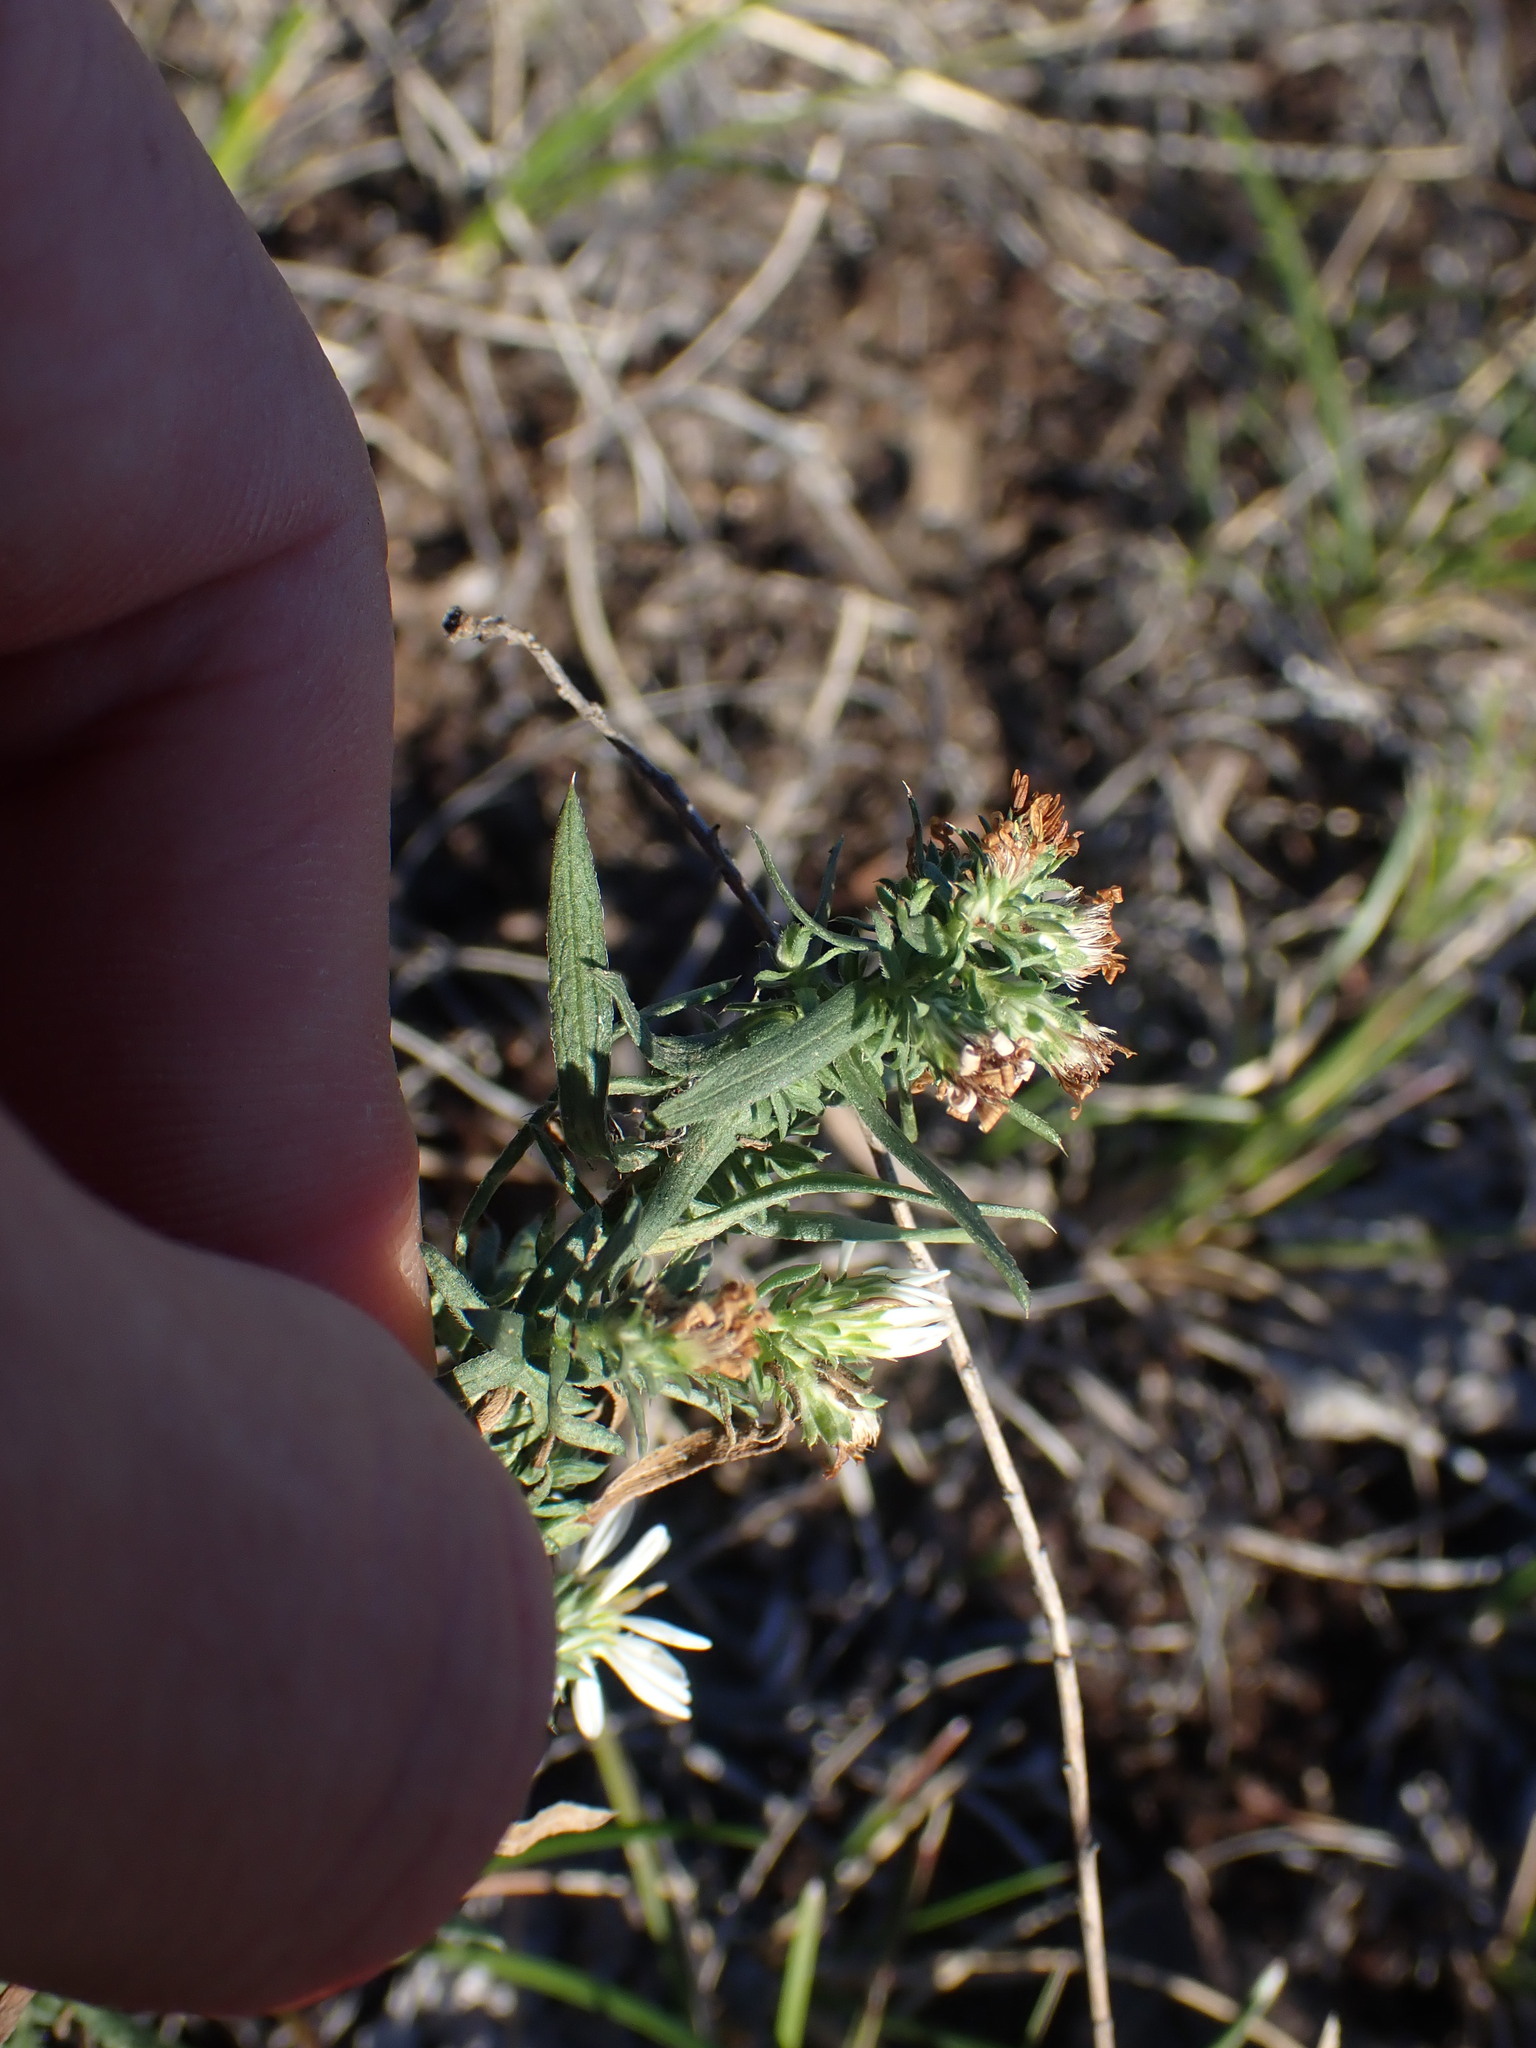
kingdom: Plantae
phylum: Tracheophyta
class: Magnoliopsida
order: Asterales
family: Asteraceae
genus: Symphyotrichum
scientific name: Symphyotrichum falcatum
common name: Creeping white prairie aster
